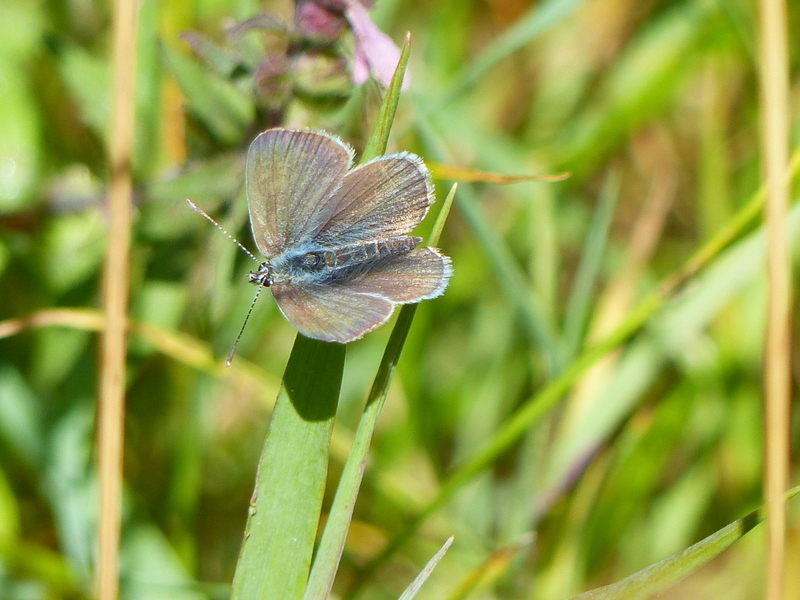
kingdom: Animalia
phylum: Arthropoda
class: Insecta
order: Lepidoptera
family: Lycaenidae
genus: Cupido
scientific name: Cupido minimus
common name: Small blue
